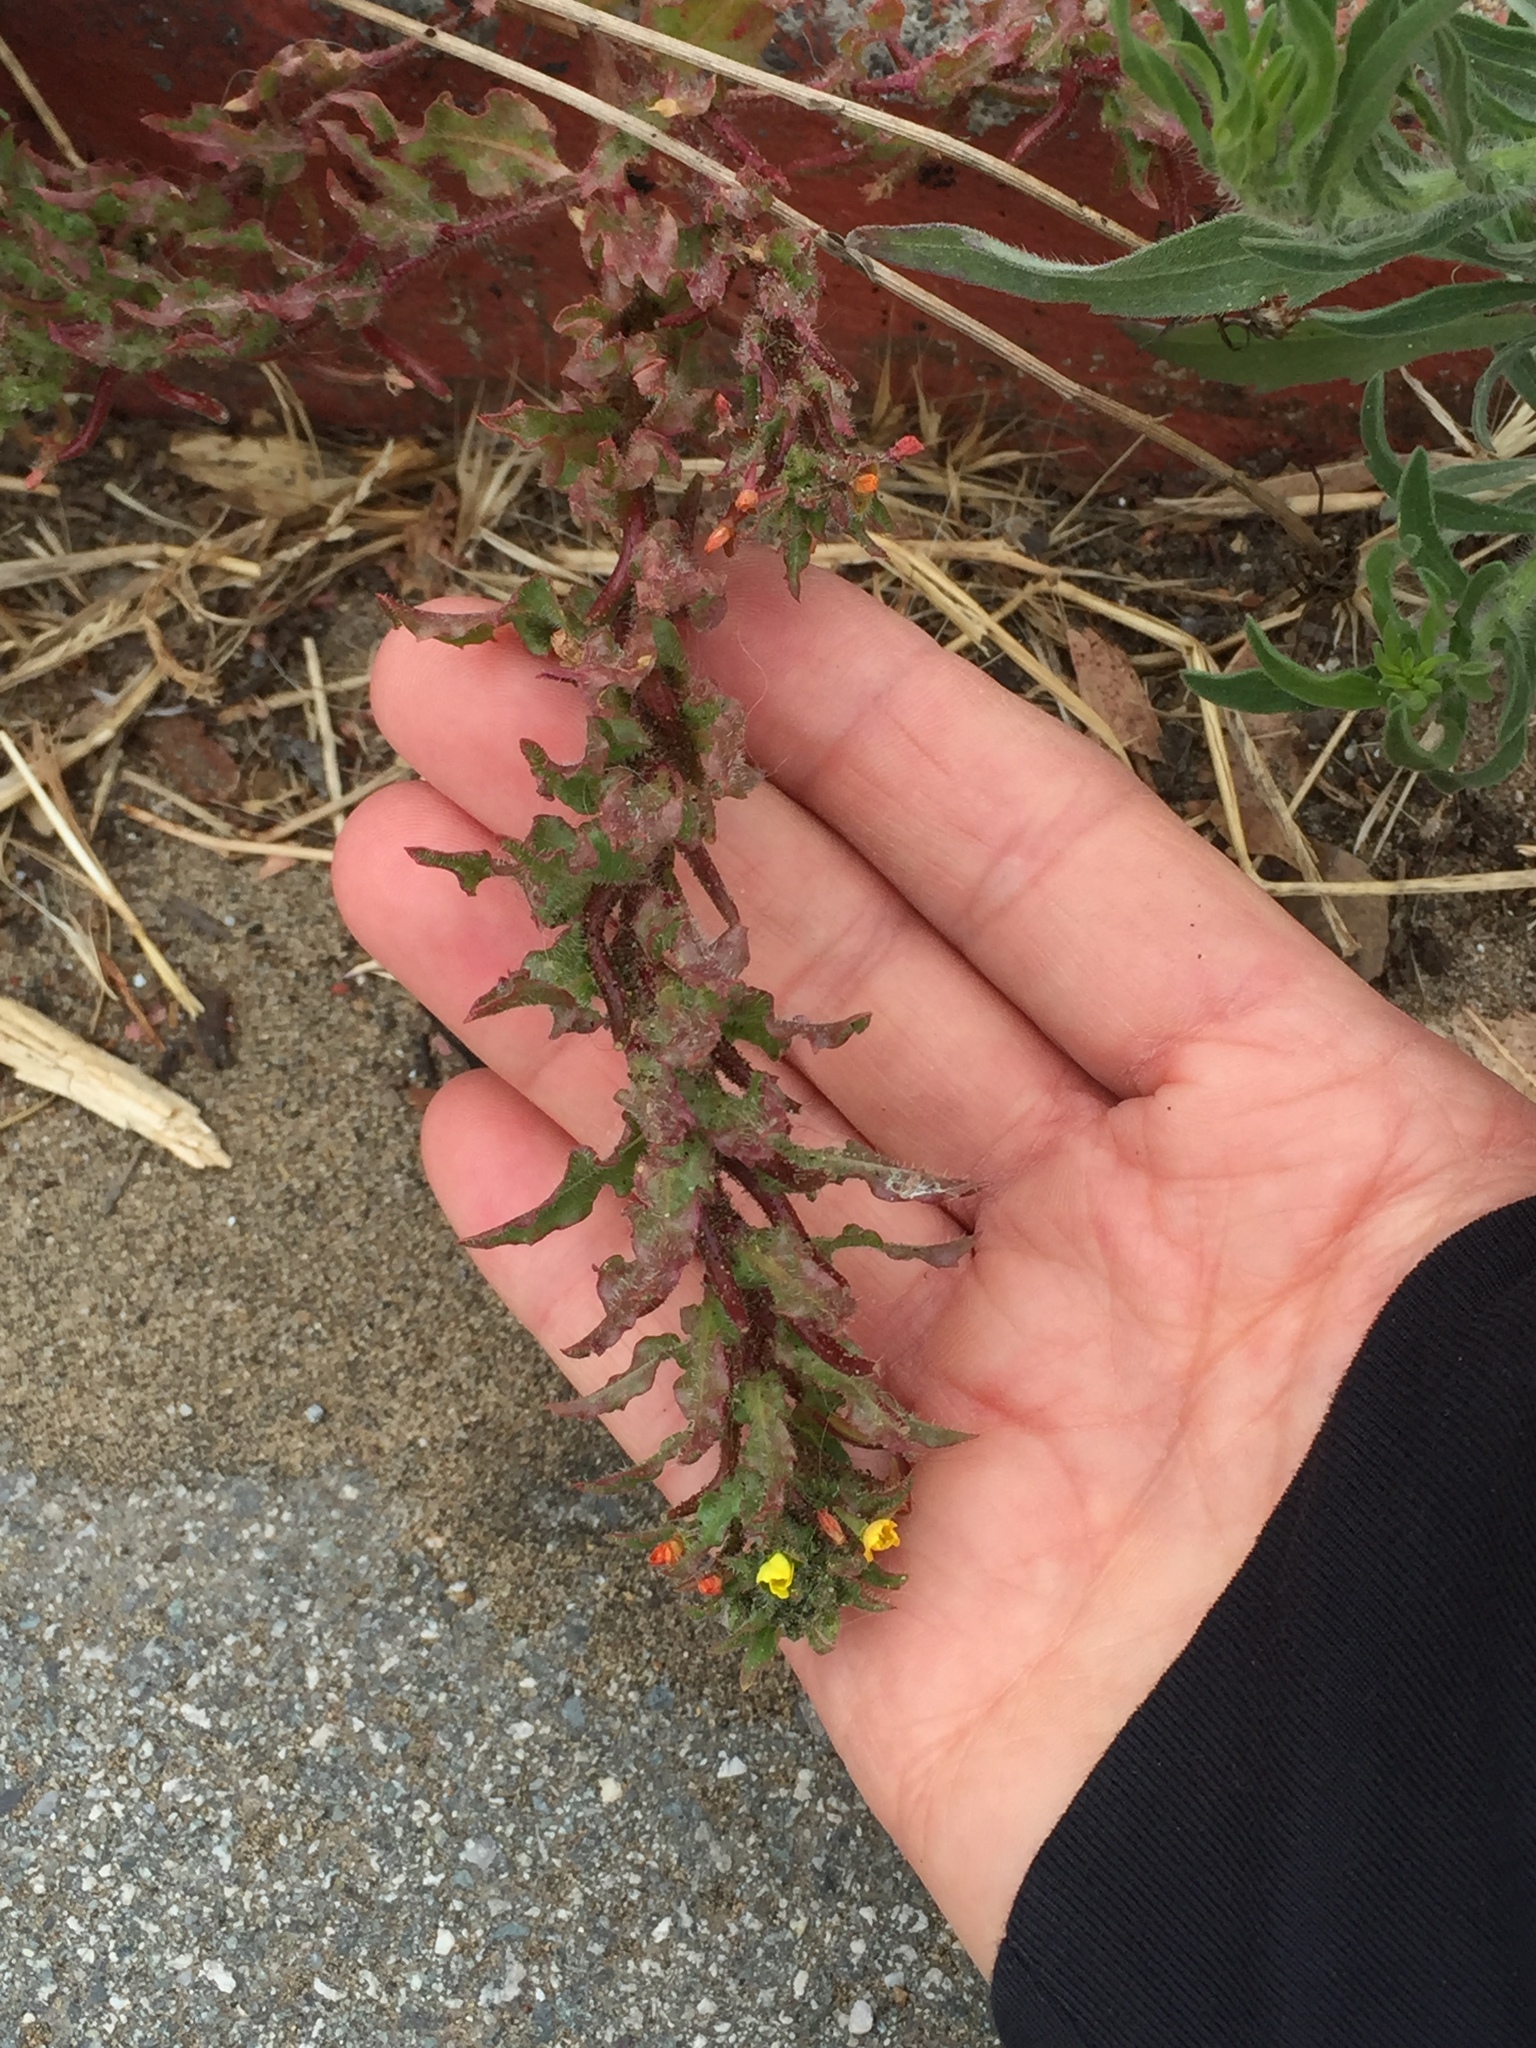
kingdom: Plantae
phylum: Tracheophyta
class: Magnoliopsida
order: Myrtales
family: Onagraceae
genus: Camissoniopsis
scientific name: Camissoniopsis micrantha
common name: Miniature suncup
